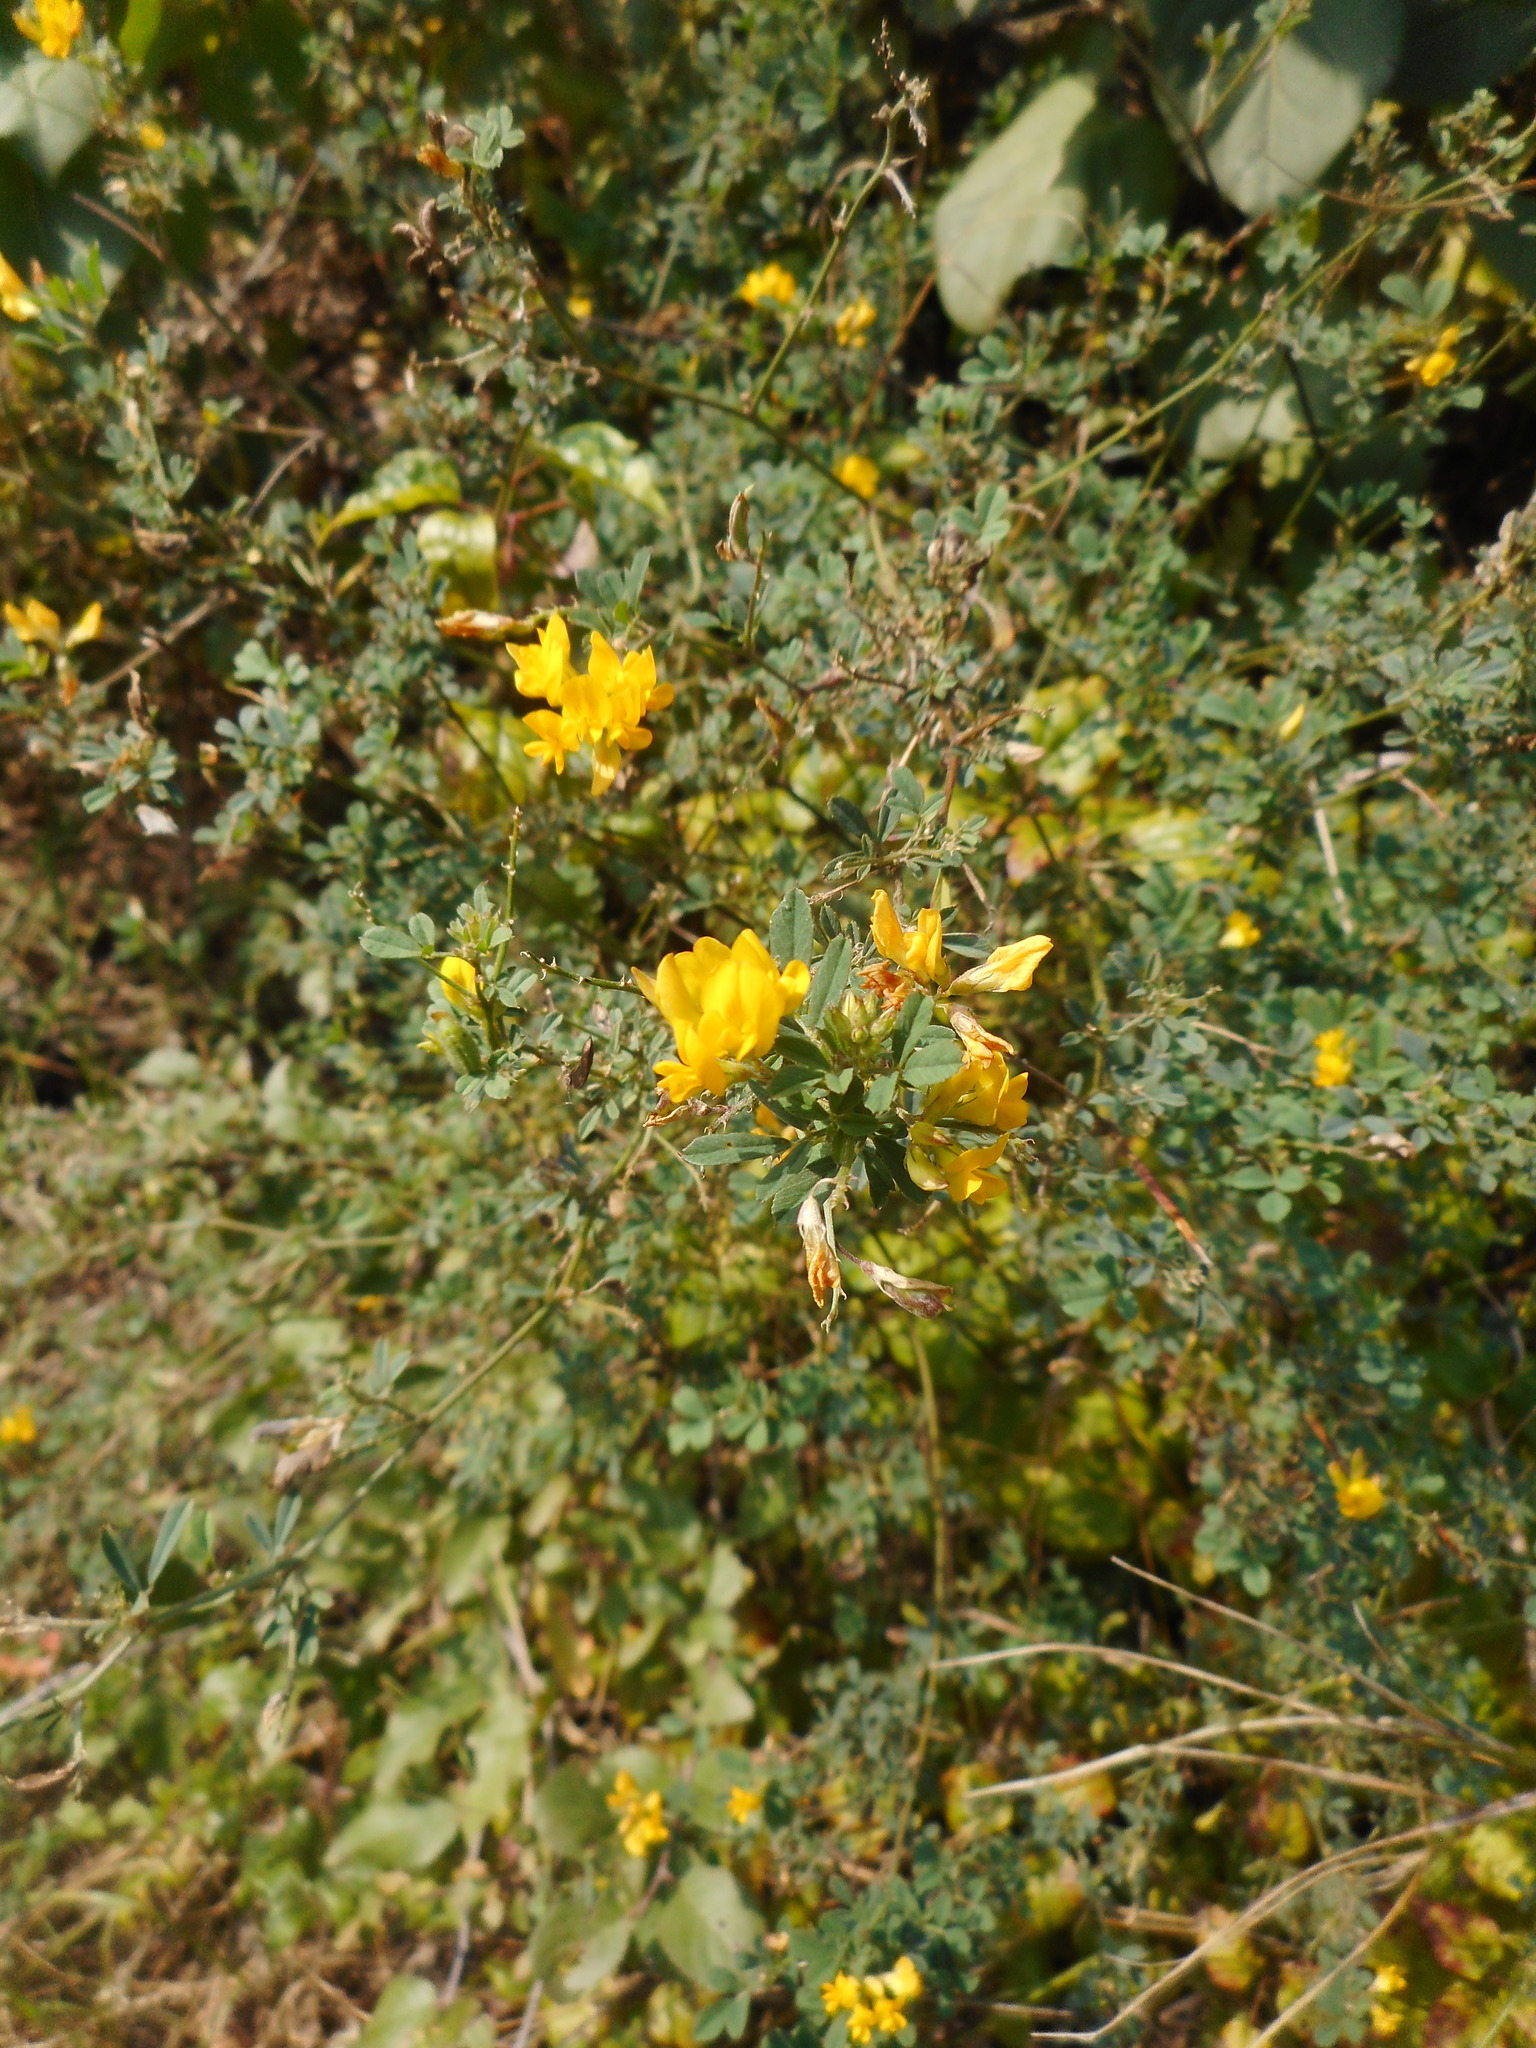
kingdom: Plantae
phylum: Tracheophyta
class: Magnoliopsida
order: Fabales
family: Fabaceae
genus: Medicago
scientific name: Medicago falcata
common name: Sickle medick
